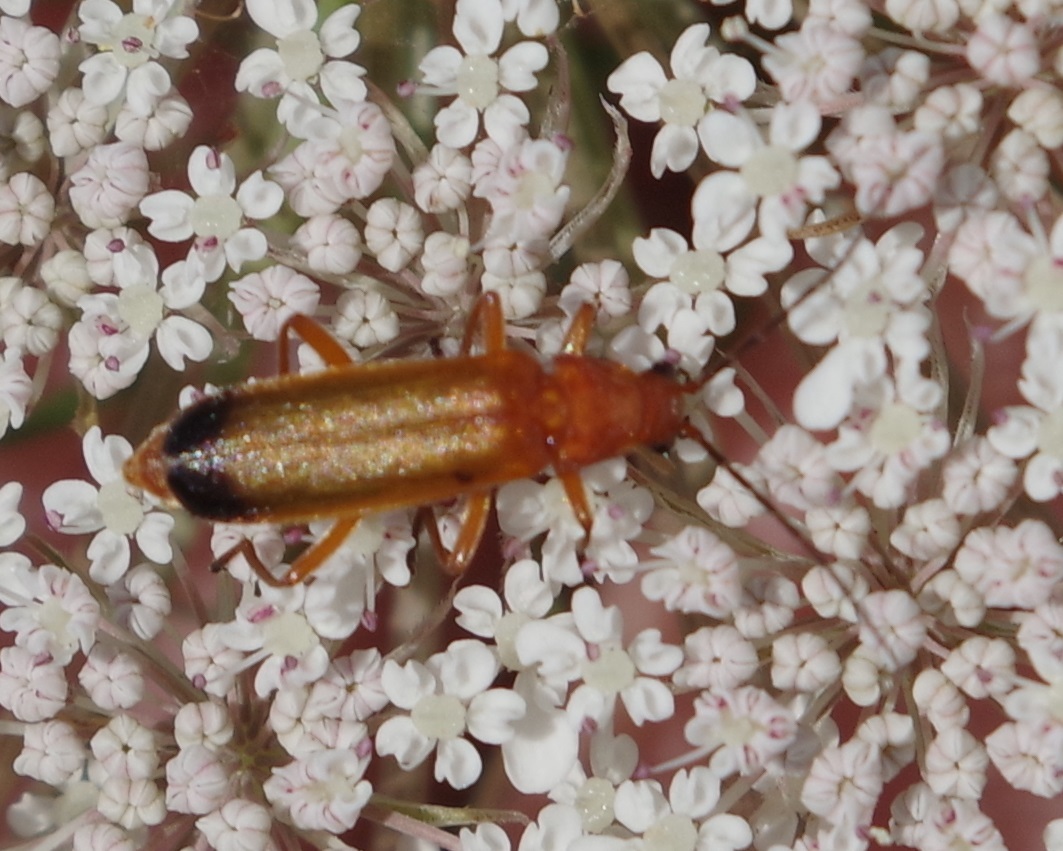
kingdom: Animalia
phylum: Arthropoda
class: Insecta
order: Coleoptera
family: Cantharidae
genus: Rhagonycha
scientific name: Rhagonycha fulva
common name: Common red soldier beetle
